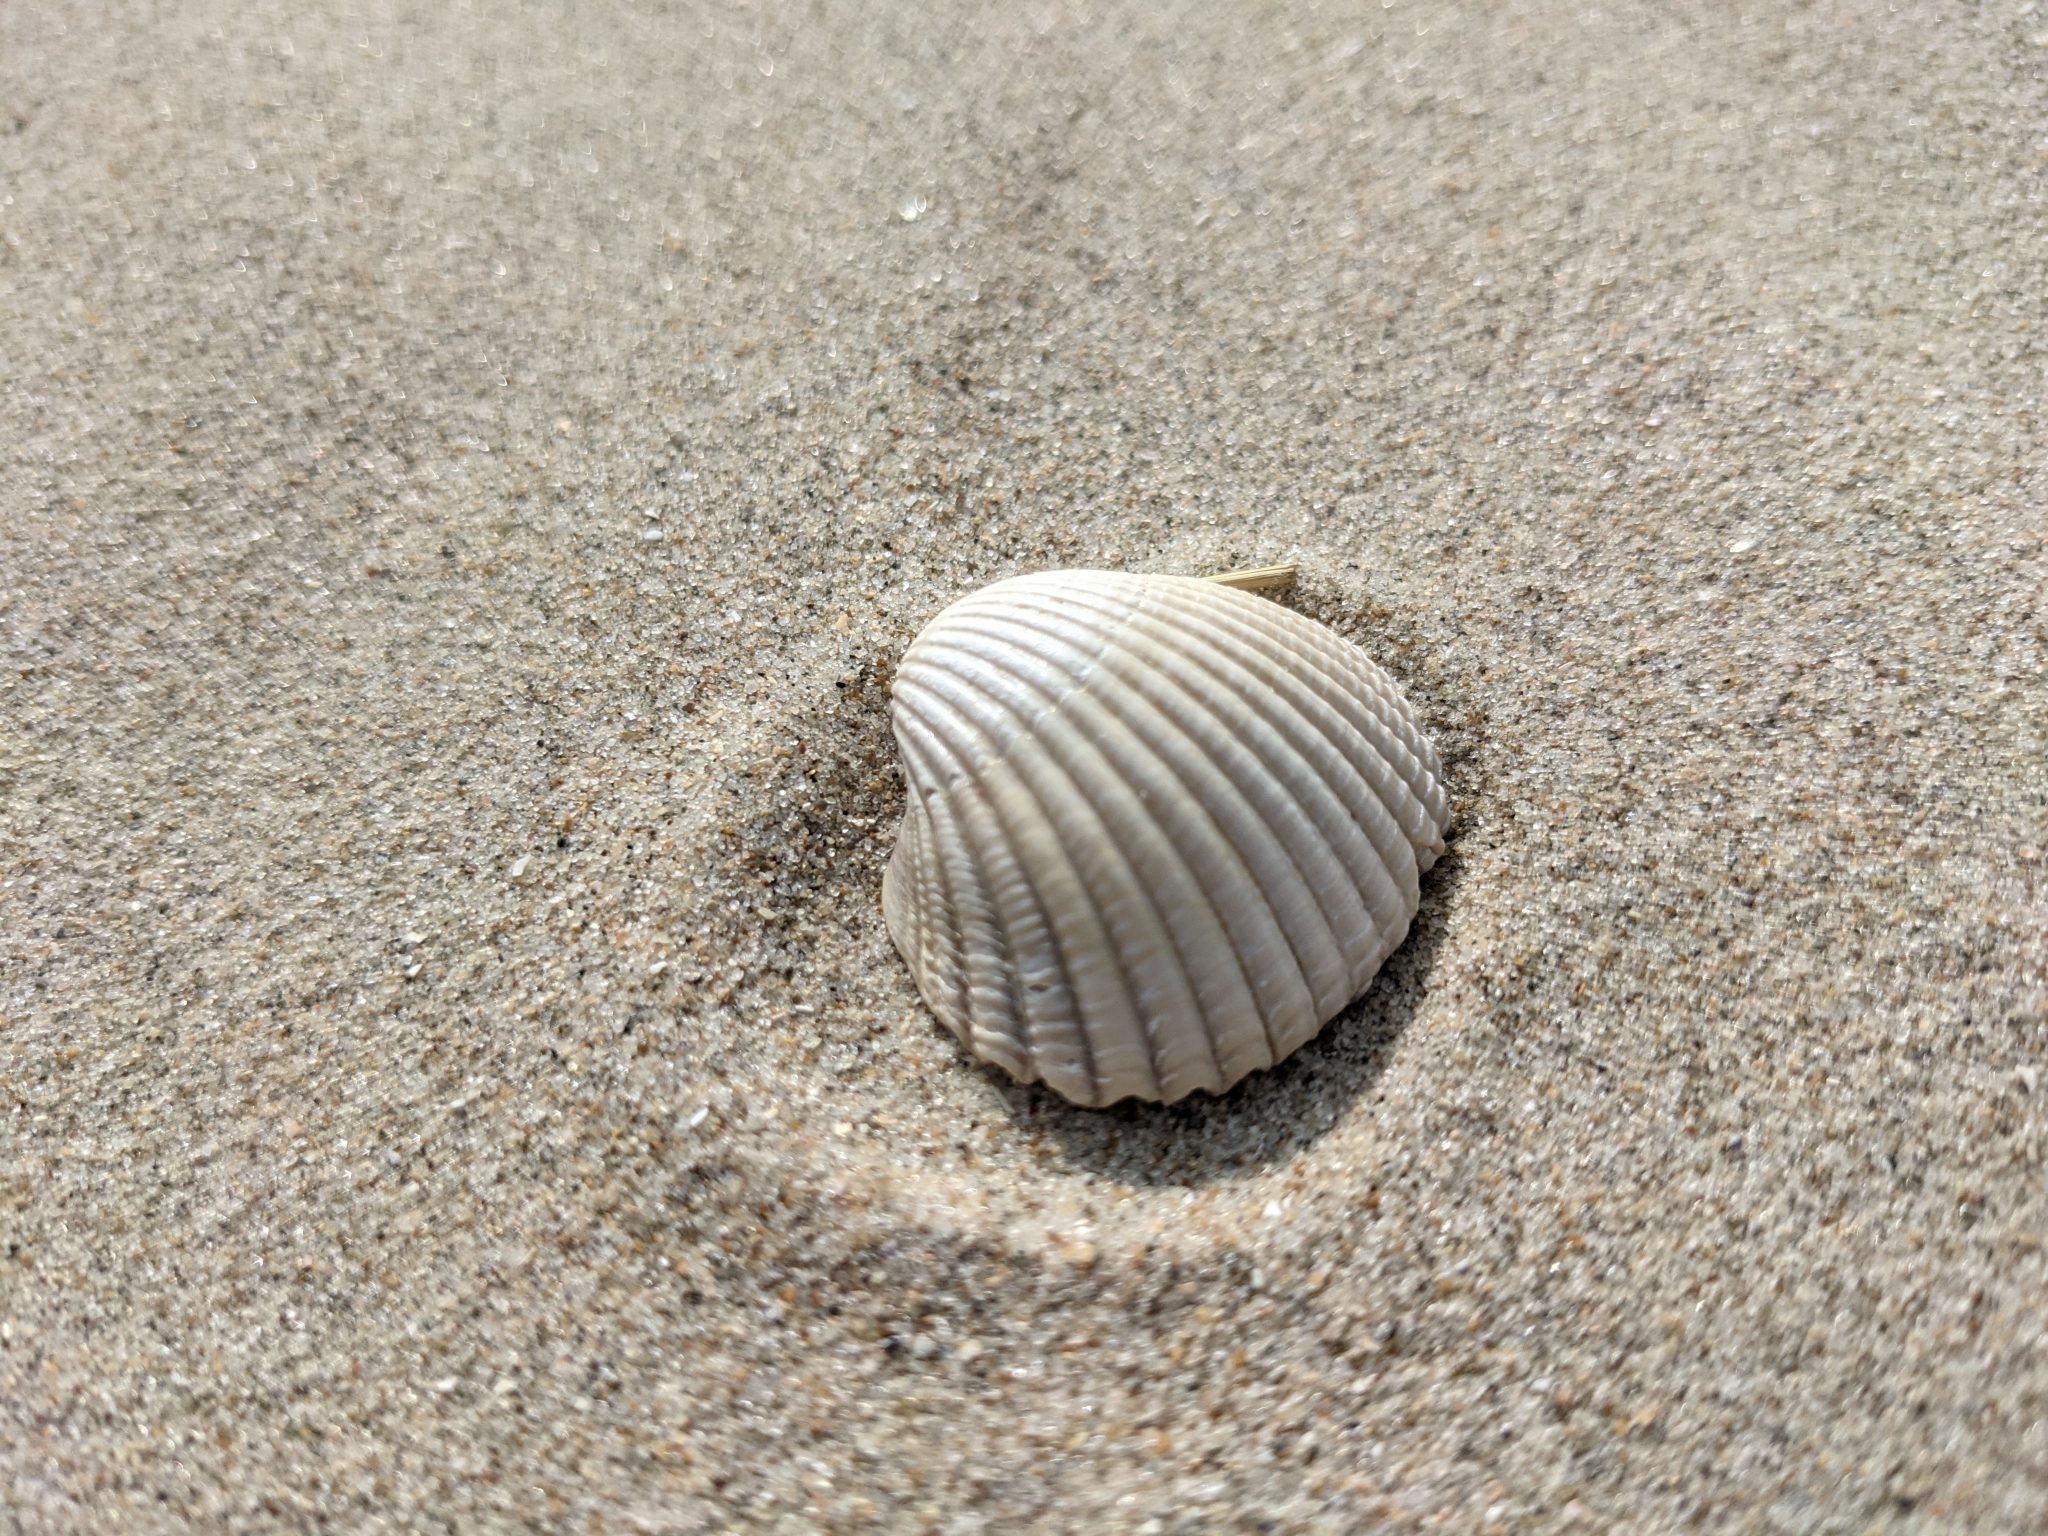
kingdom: Animalia
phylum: Mollusca
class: Bivalvia
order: Cardiida
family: Cardiidae
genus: Cerastoderma
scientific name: Cerastoderma edule
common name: Common cockle
